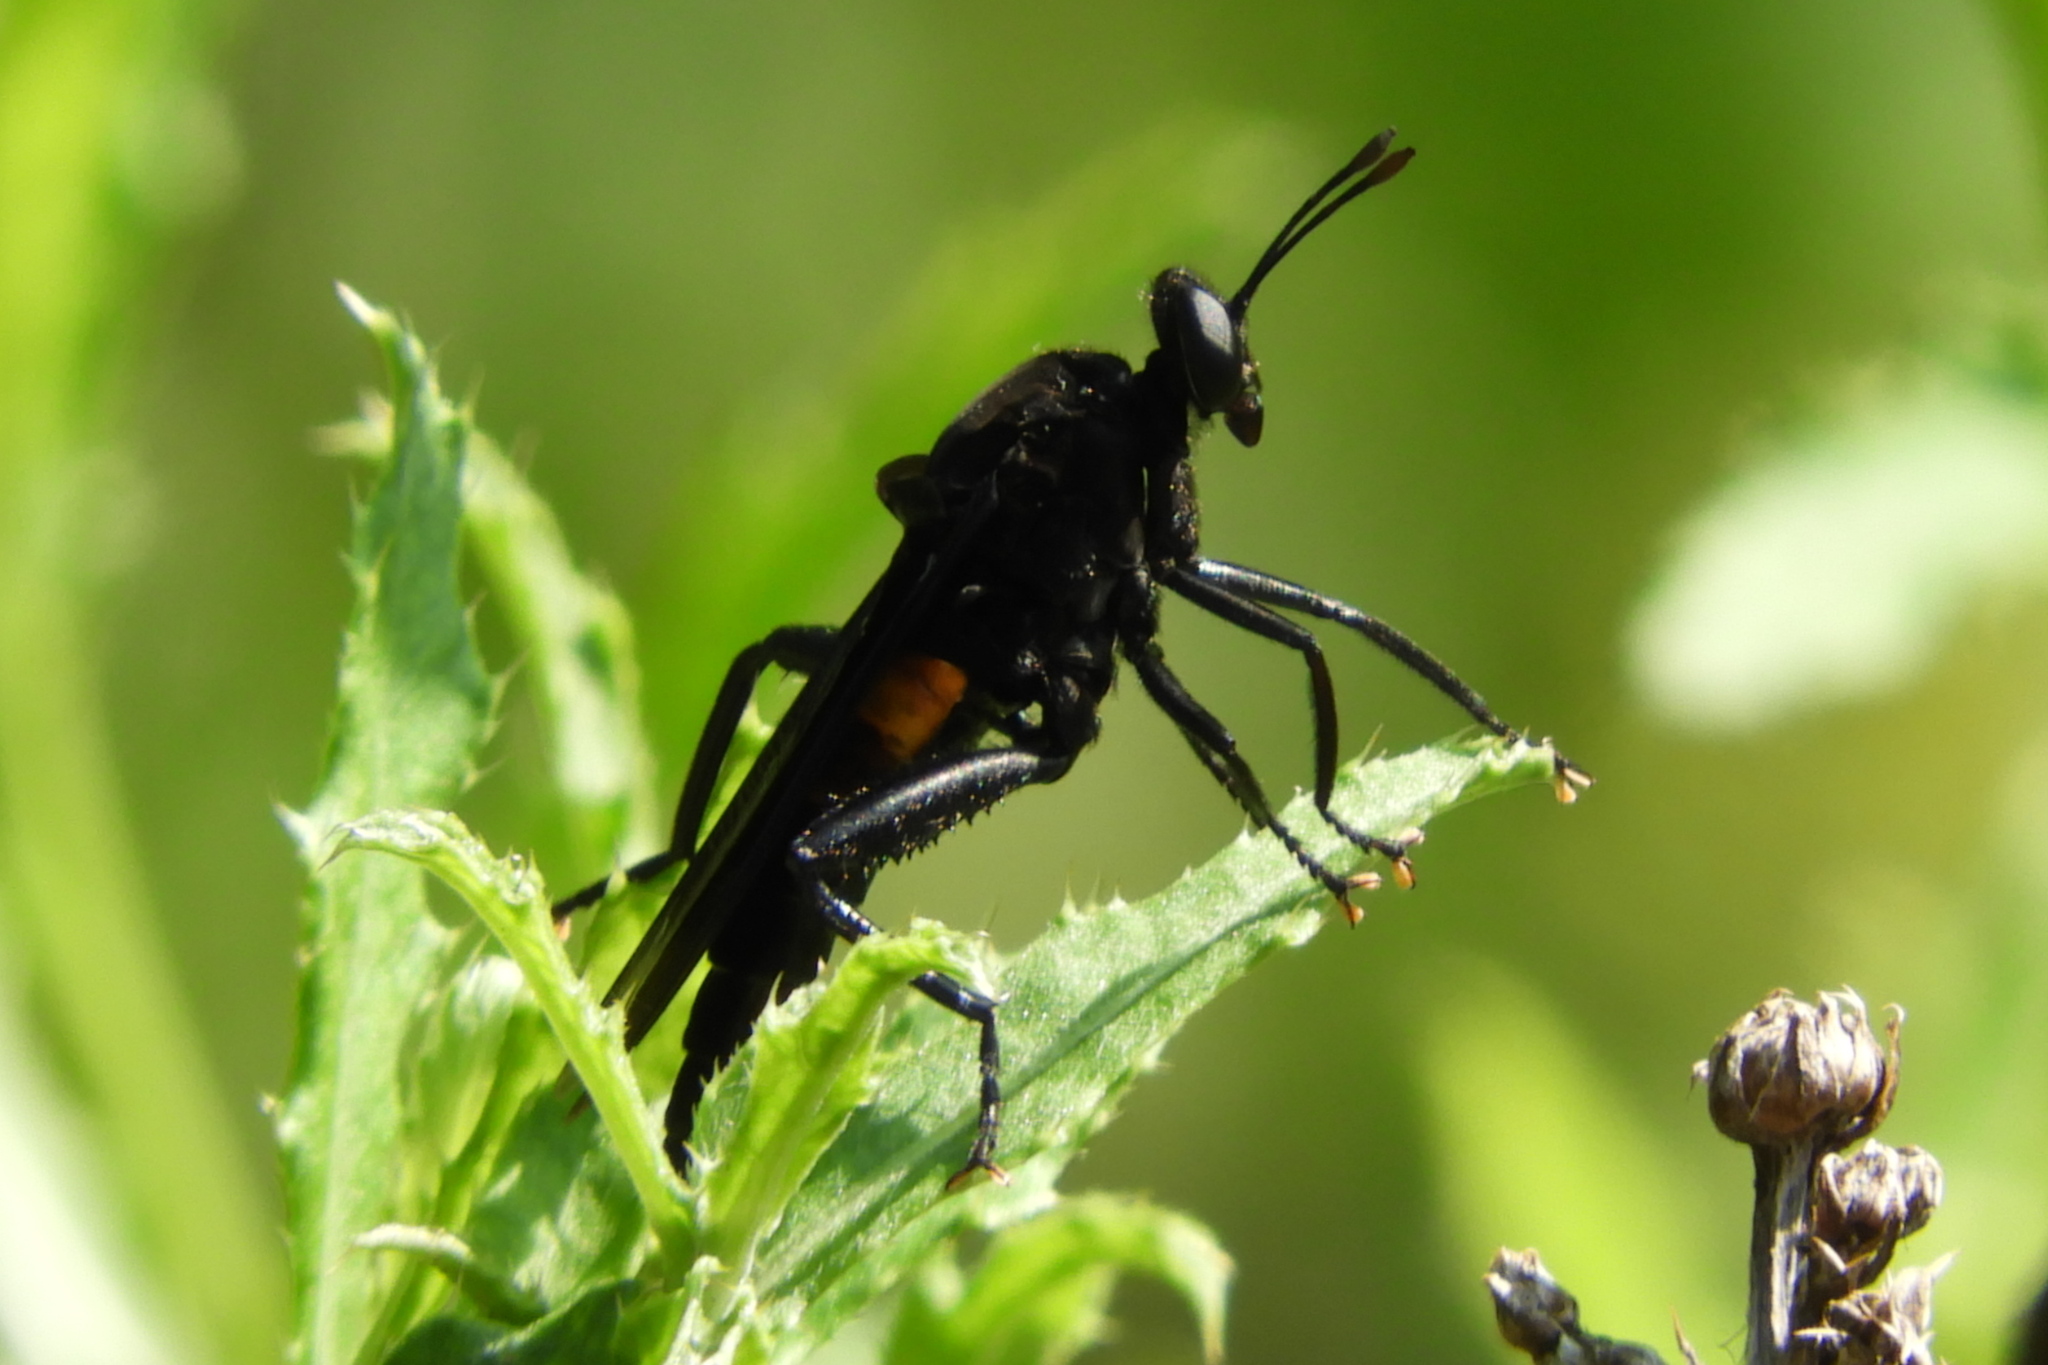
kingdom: Animalia
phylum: Arthropoda
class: Insecta
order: Diptera
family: Mydidae
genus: Mydas
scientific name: Mydas clavatus
